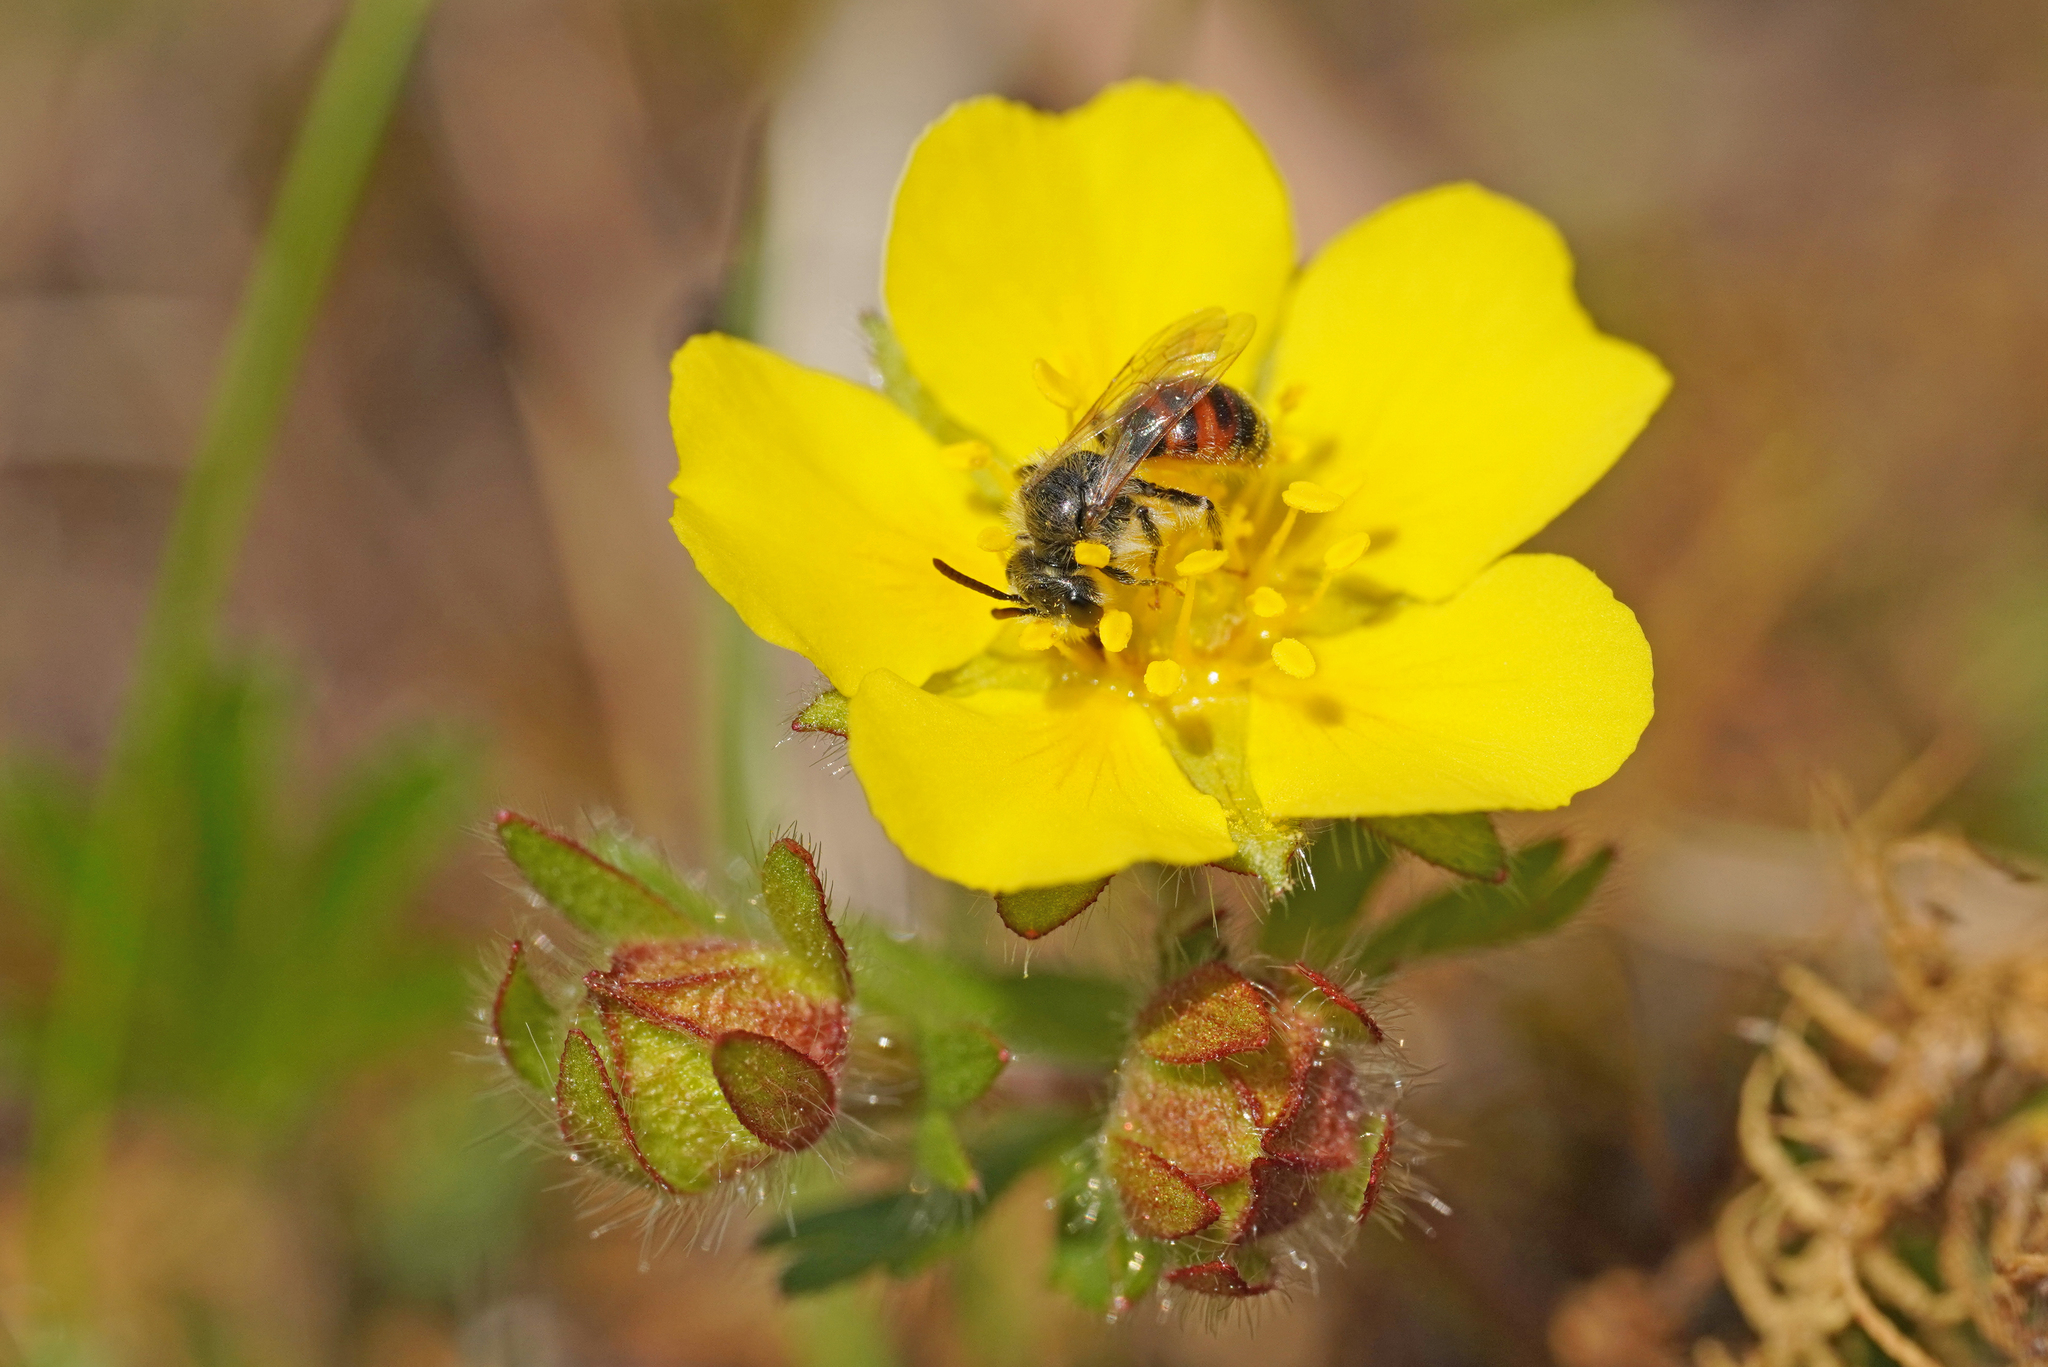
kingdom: Animalia
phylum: Arthropoda
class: Insecta
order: Hymenoptera
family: Andrenidae
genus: Andrena
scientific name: Andrena potentillae
